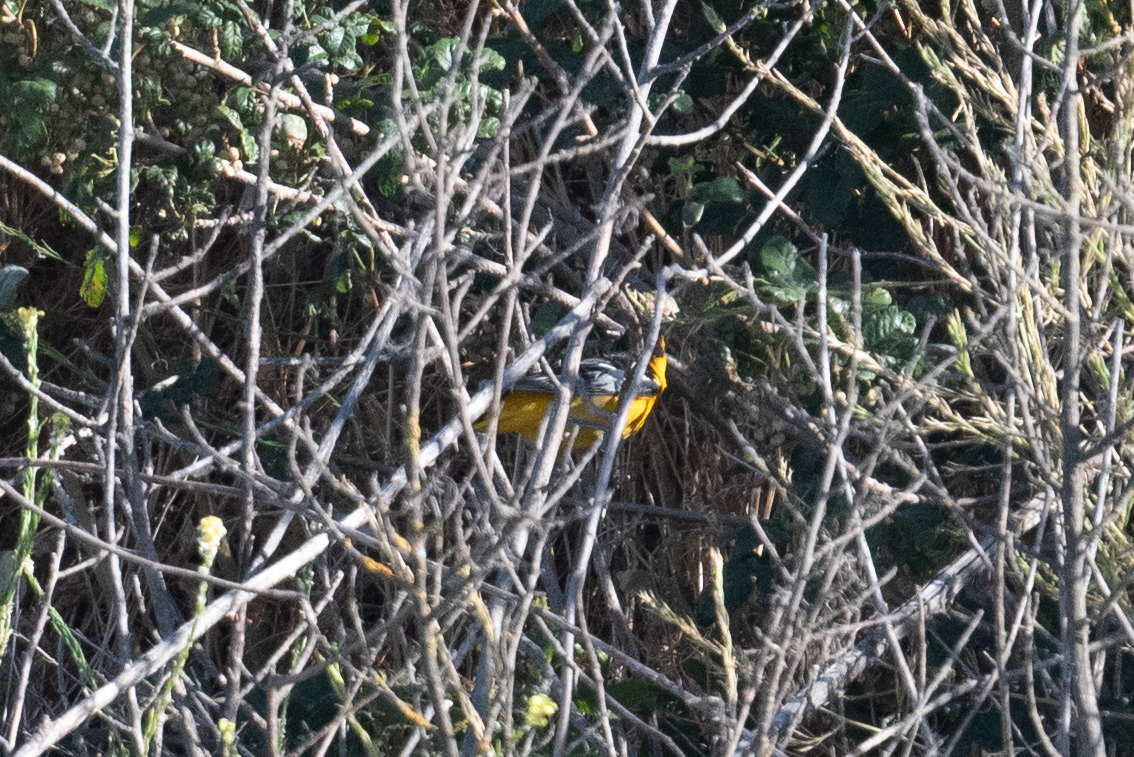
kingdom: Animalia
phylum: Chordata
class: Aves
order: Passeriformes
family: Icteridae
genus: Icterus
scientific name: Icterus bullockii
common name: Bullock's oriole
